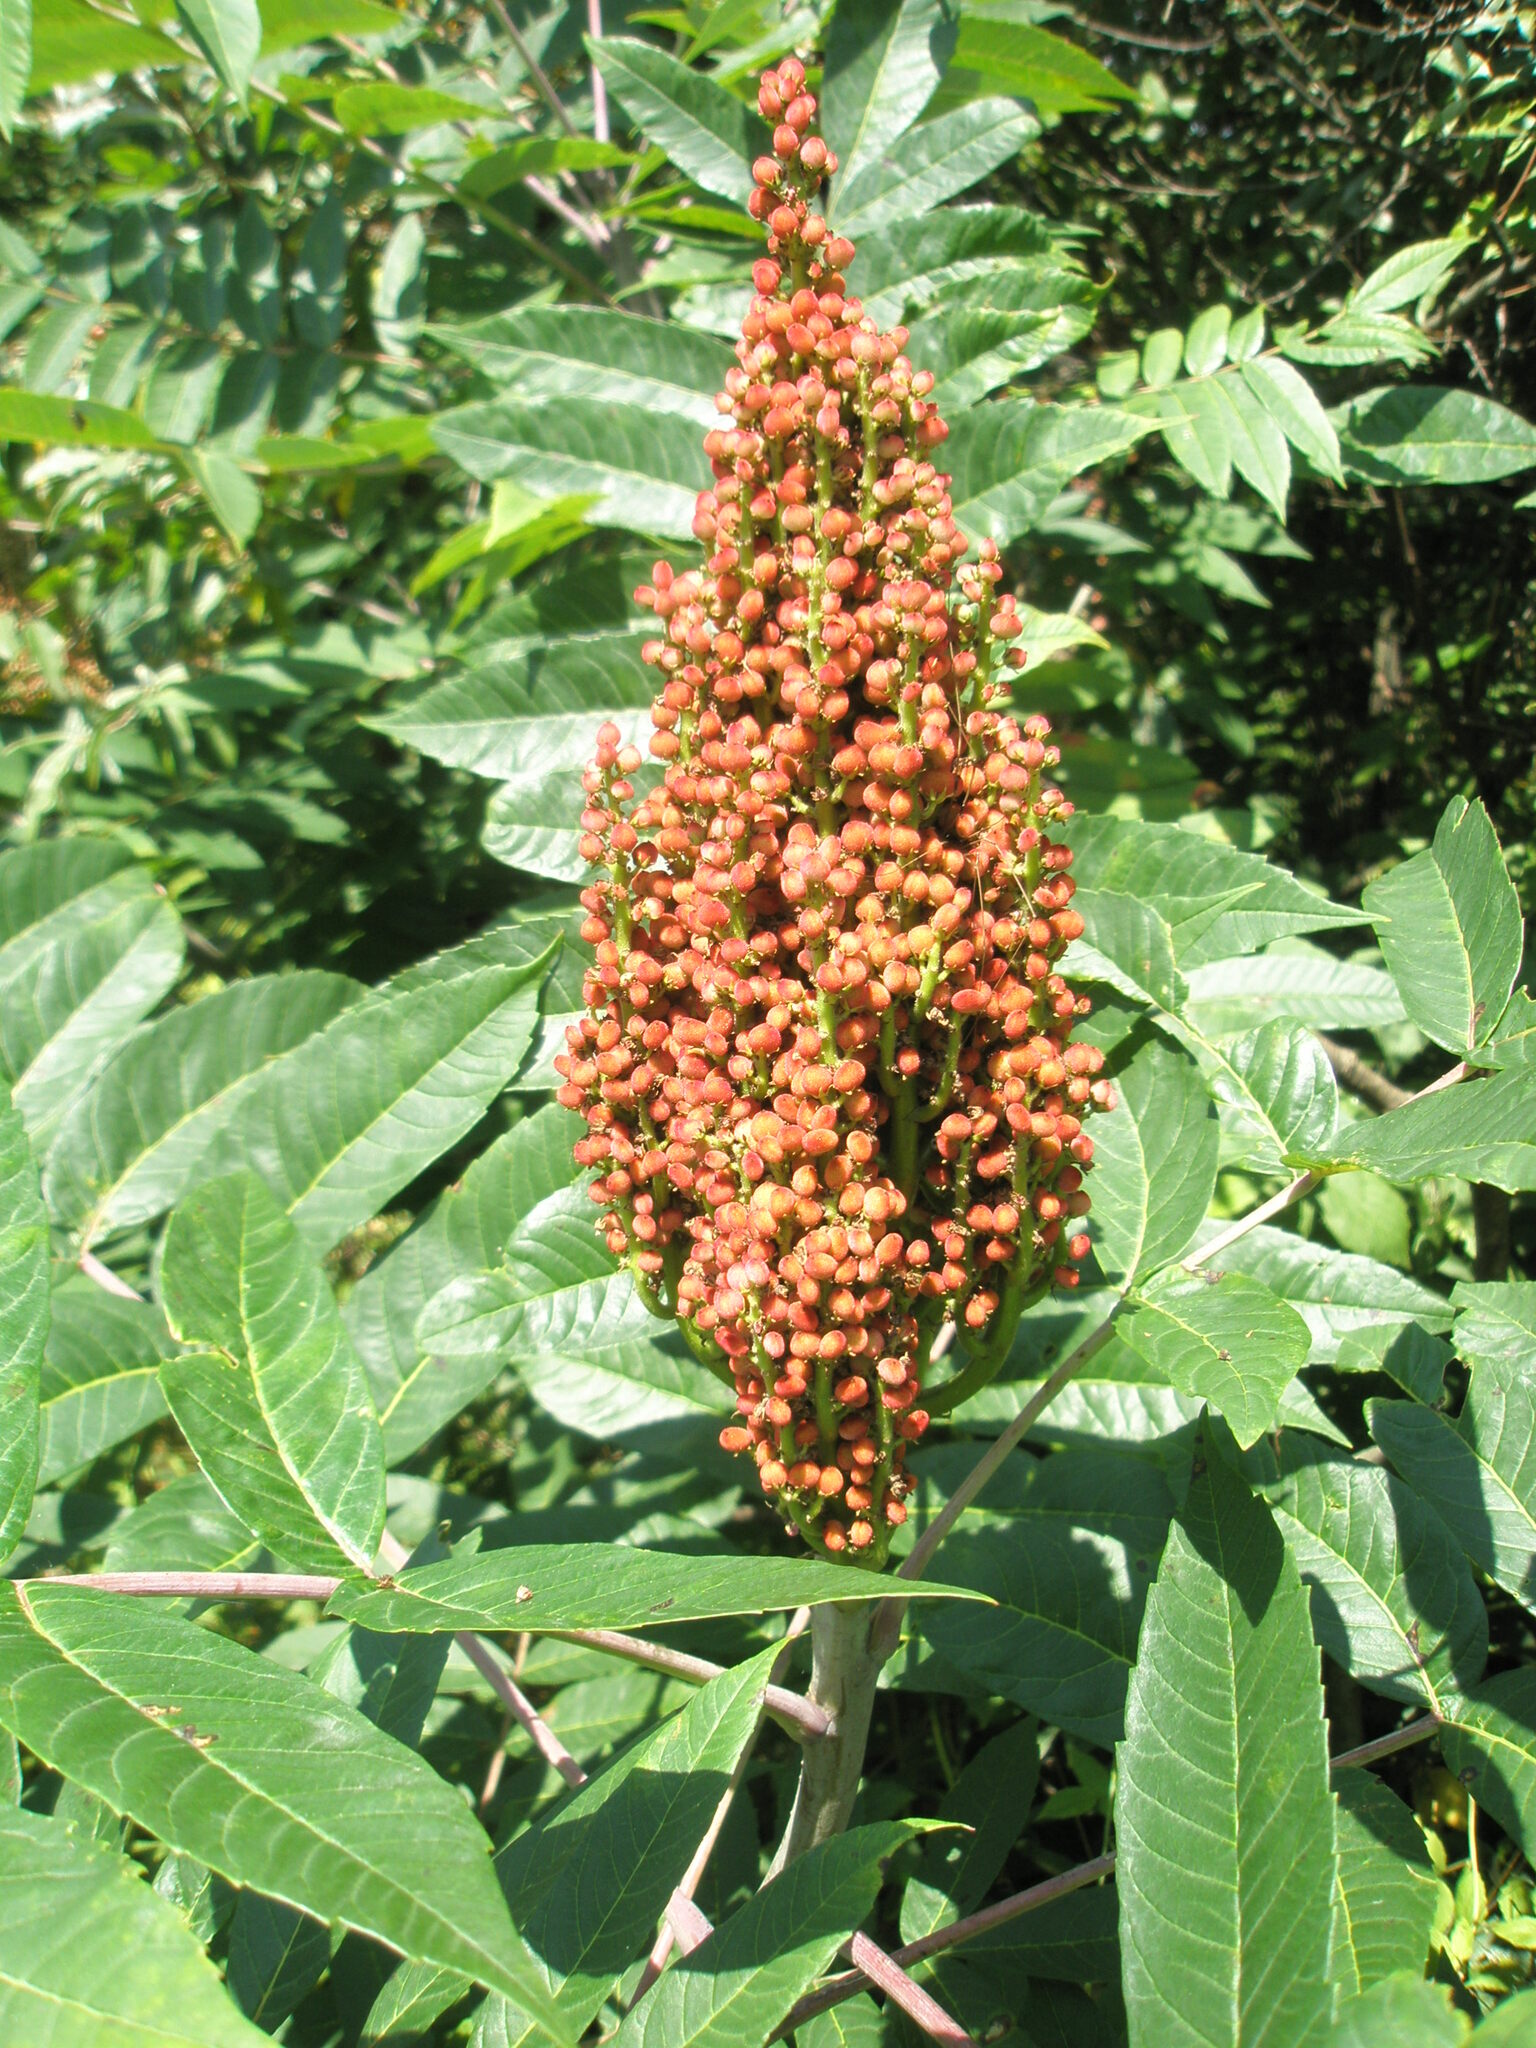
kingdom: Plantae
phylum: Tracheophyta
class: Magnoliopsida
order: Sapindales
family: Anacardiaceae
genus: Rhus
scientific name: Rhus glabra
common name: Scarlet sumac
